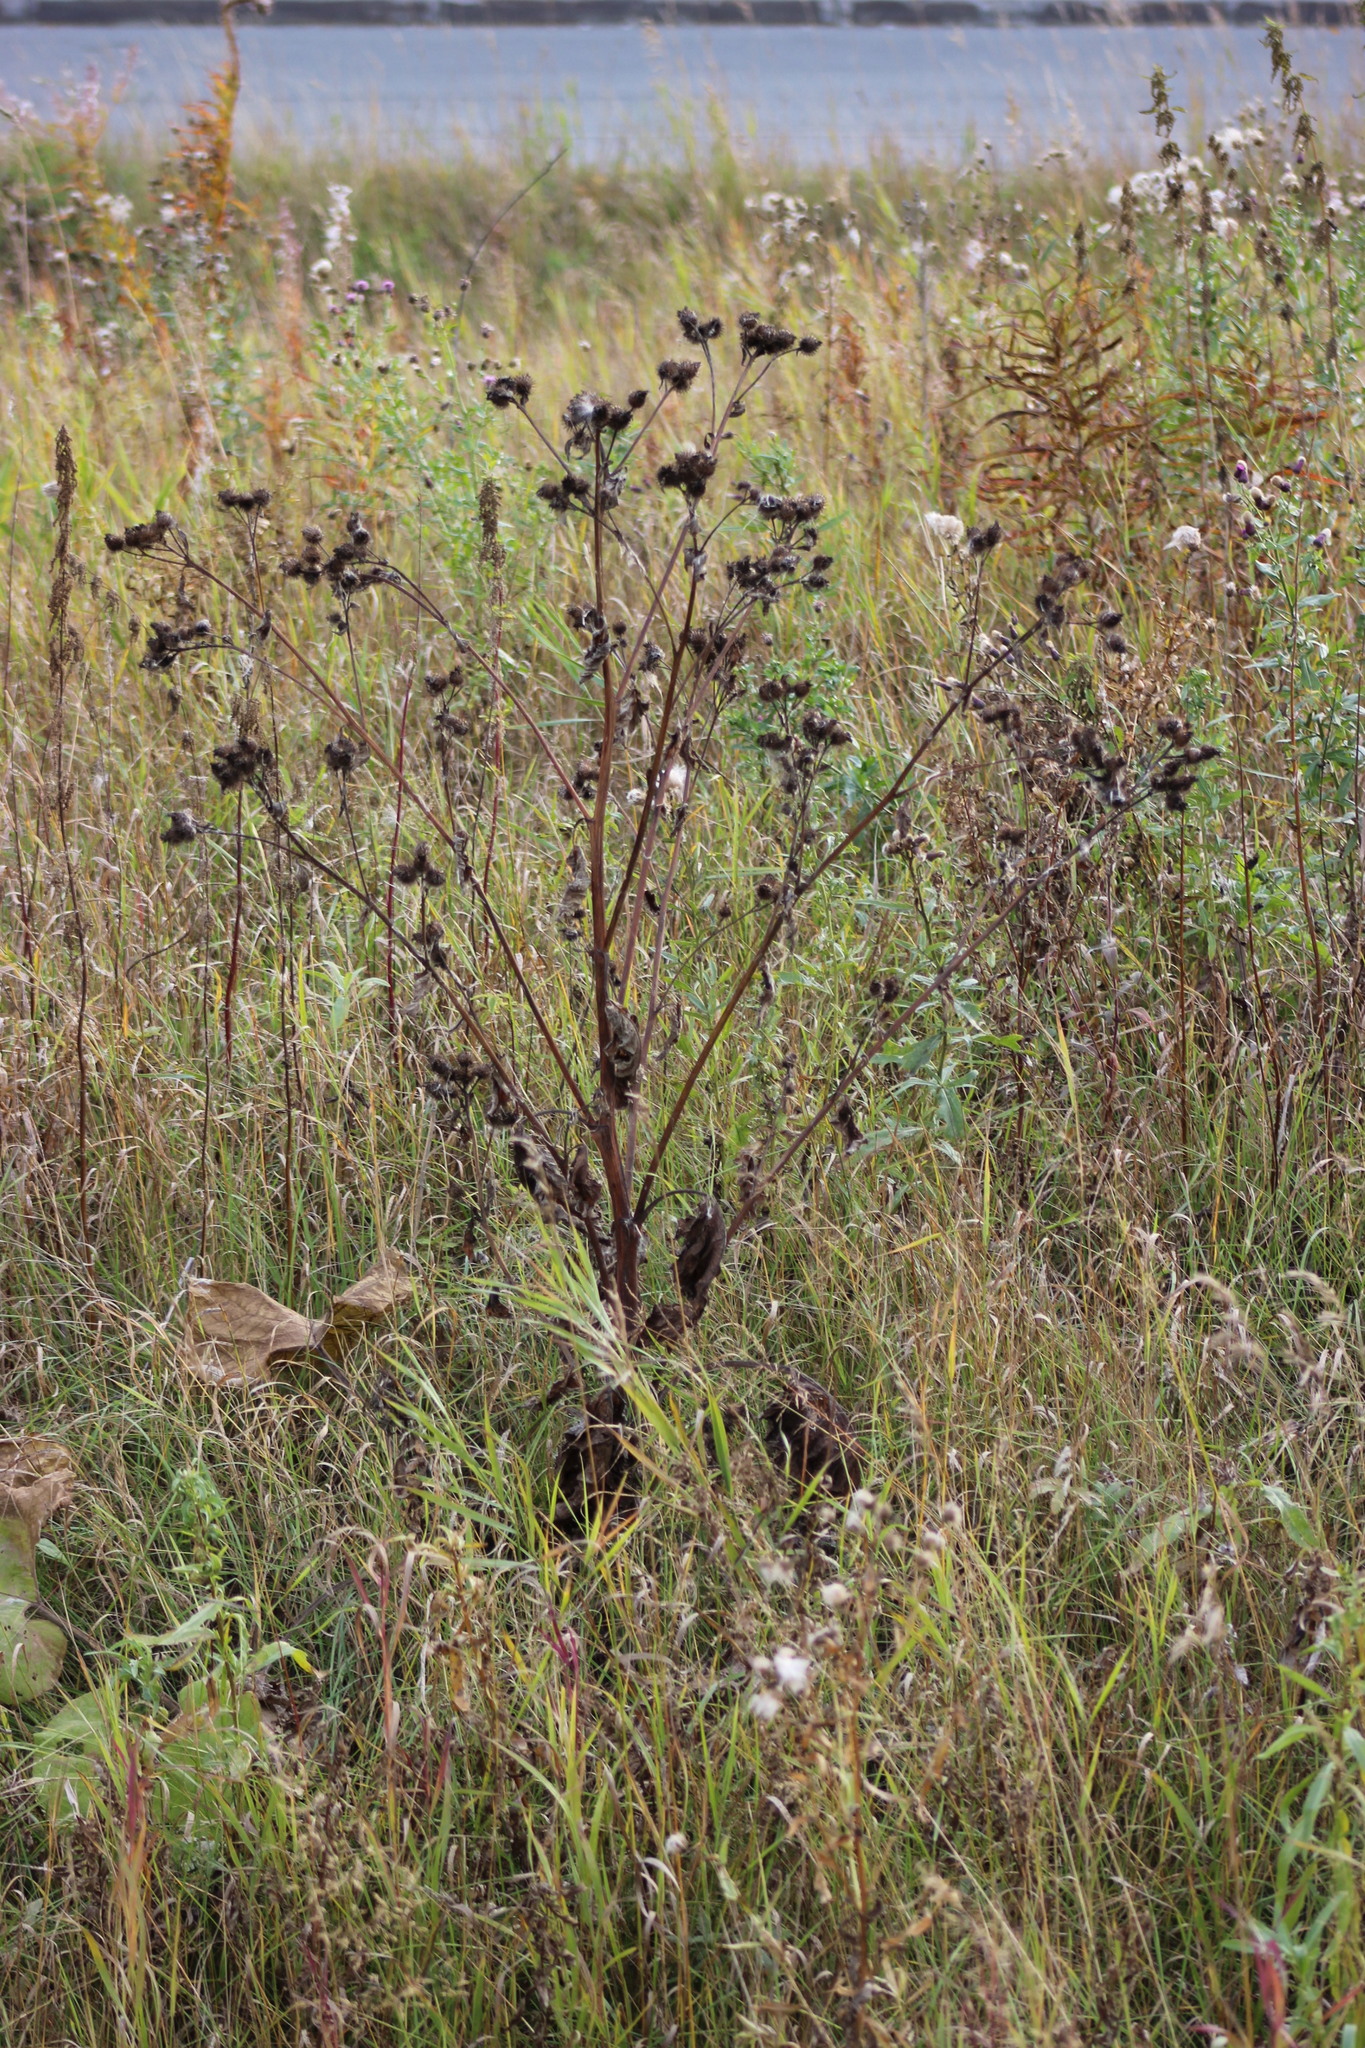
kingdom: Plantae
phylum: Tracheophyta
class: Magnoliopsida
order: Asterales
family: Asteraceae
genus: Arctium
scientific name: Arctium tomentosum
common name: Woolly burdock
